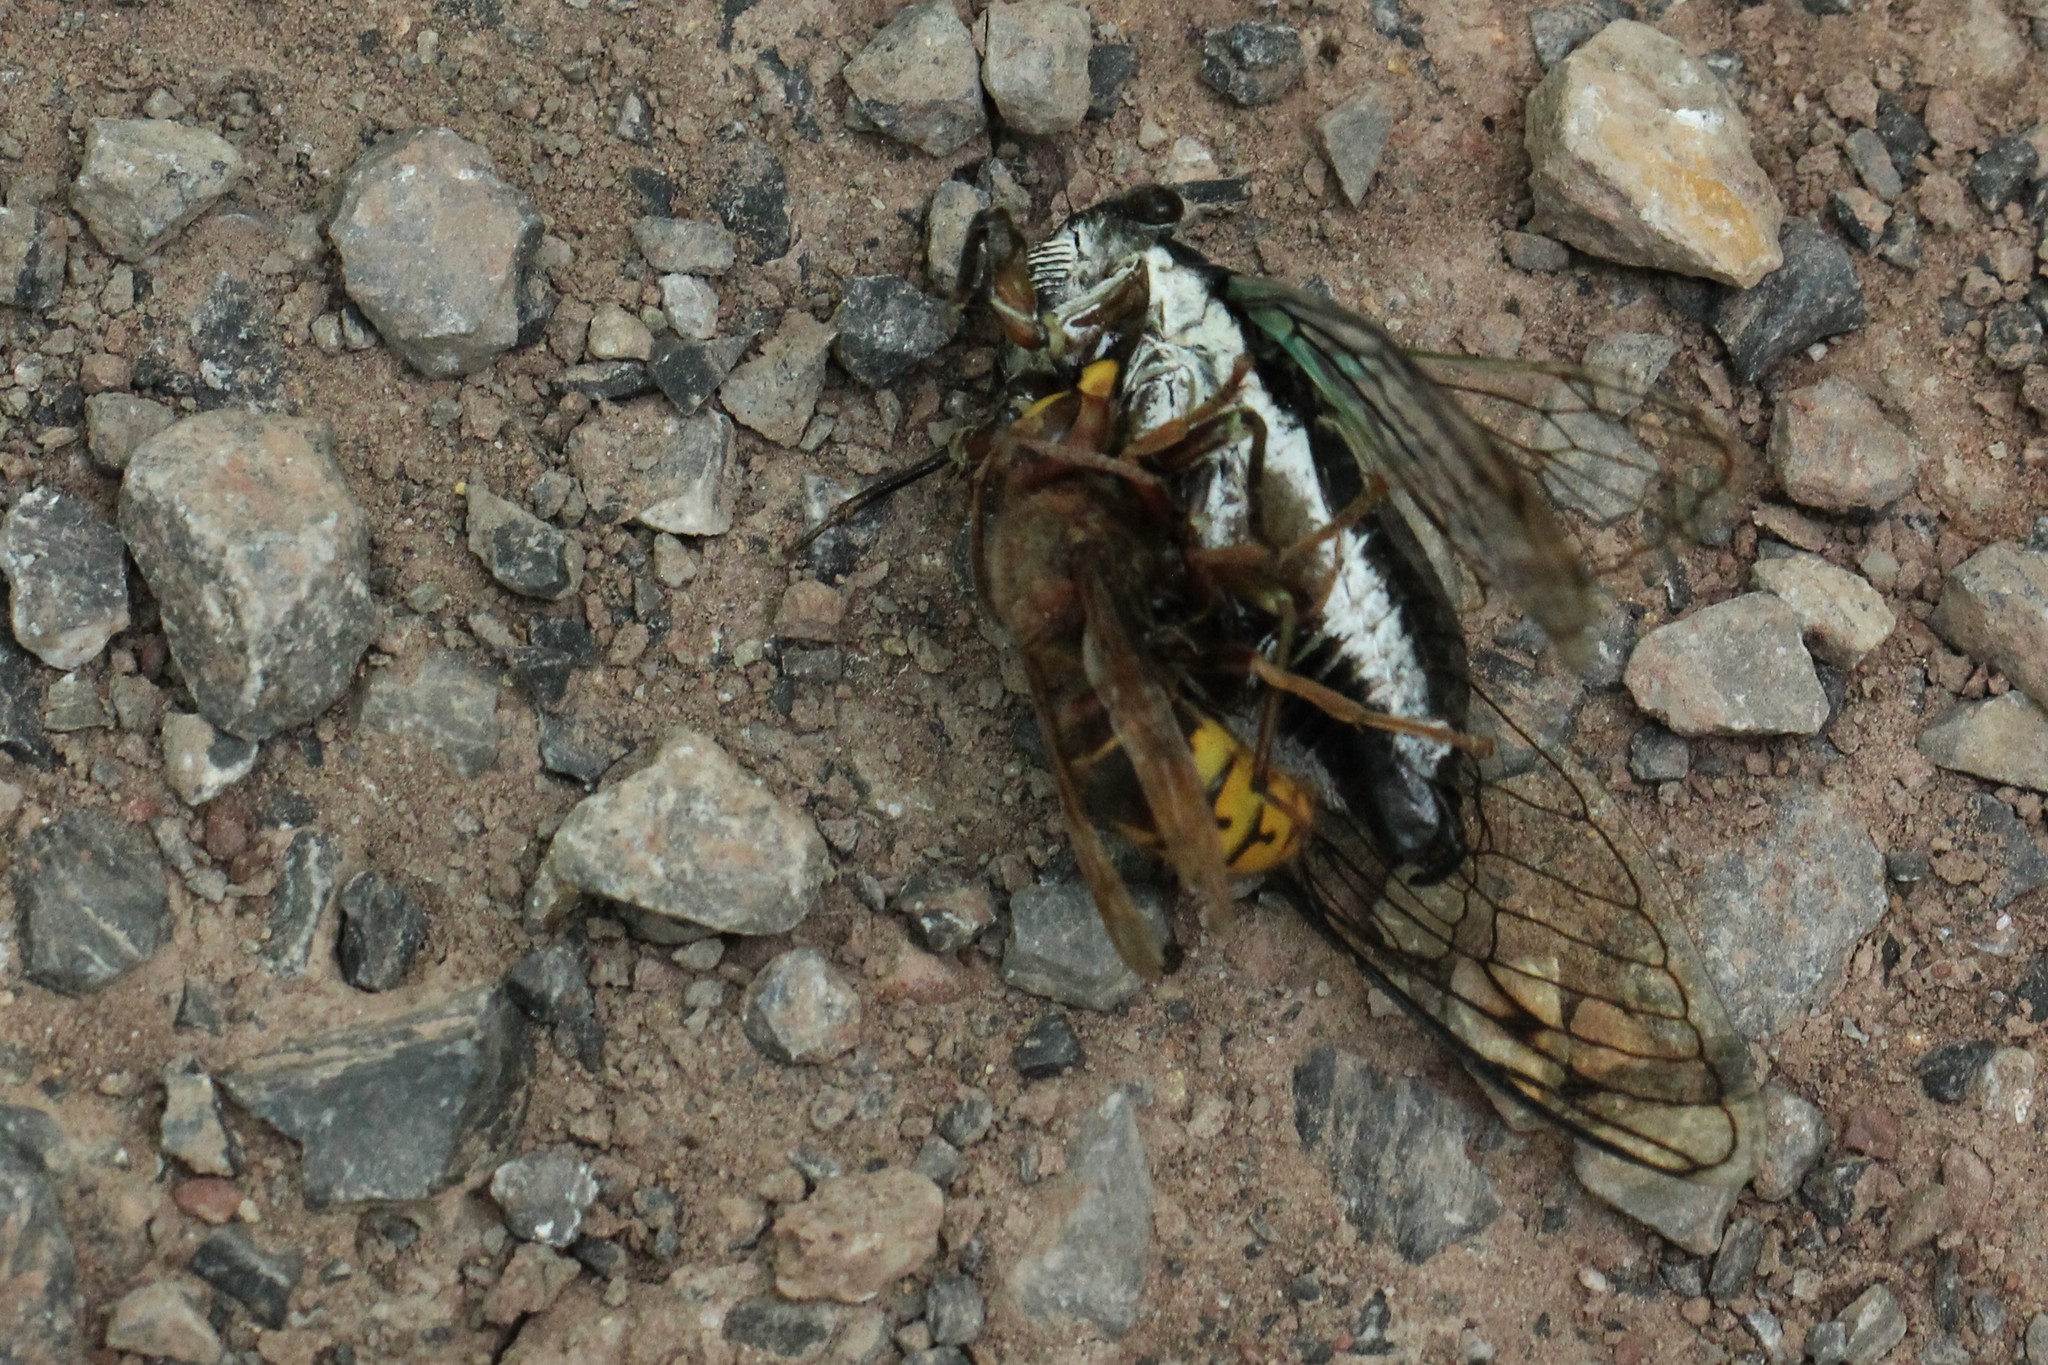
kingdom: Animalia
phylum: Arthropoda
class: Insecta
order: Hymenoptera
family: Vespidae
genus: Vespa
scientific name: Vespa crabro
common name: Hornet
